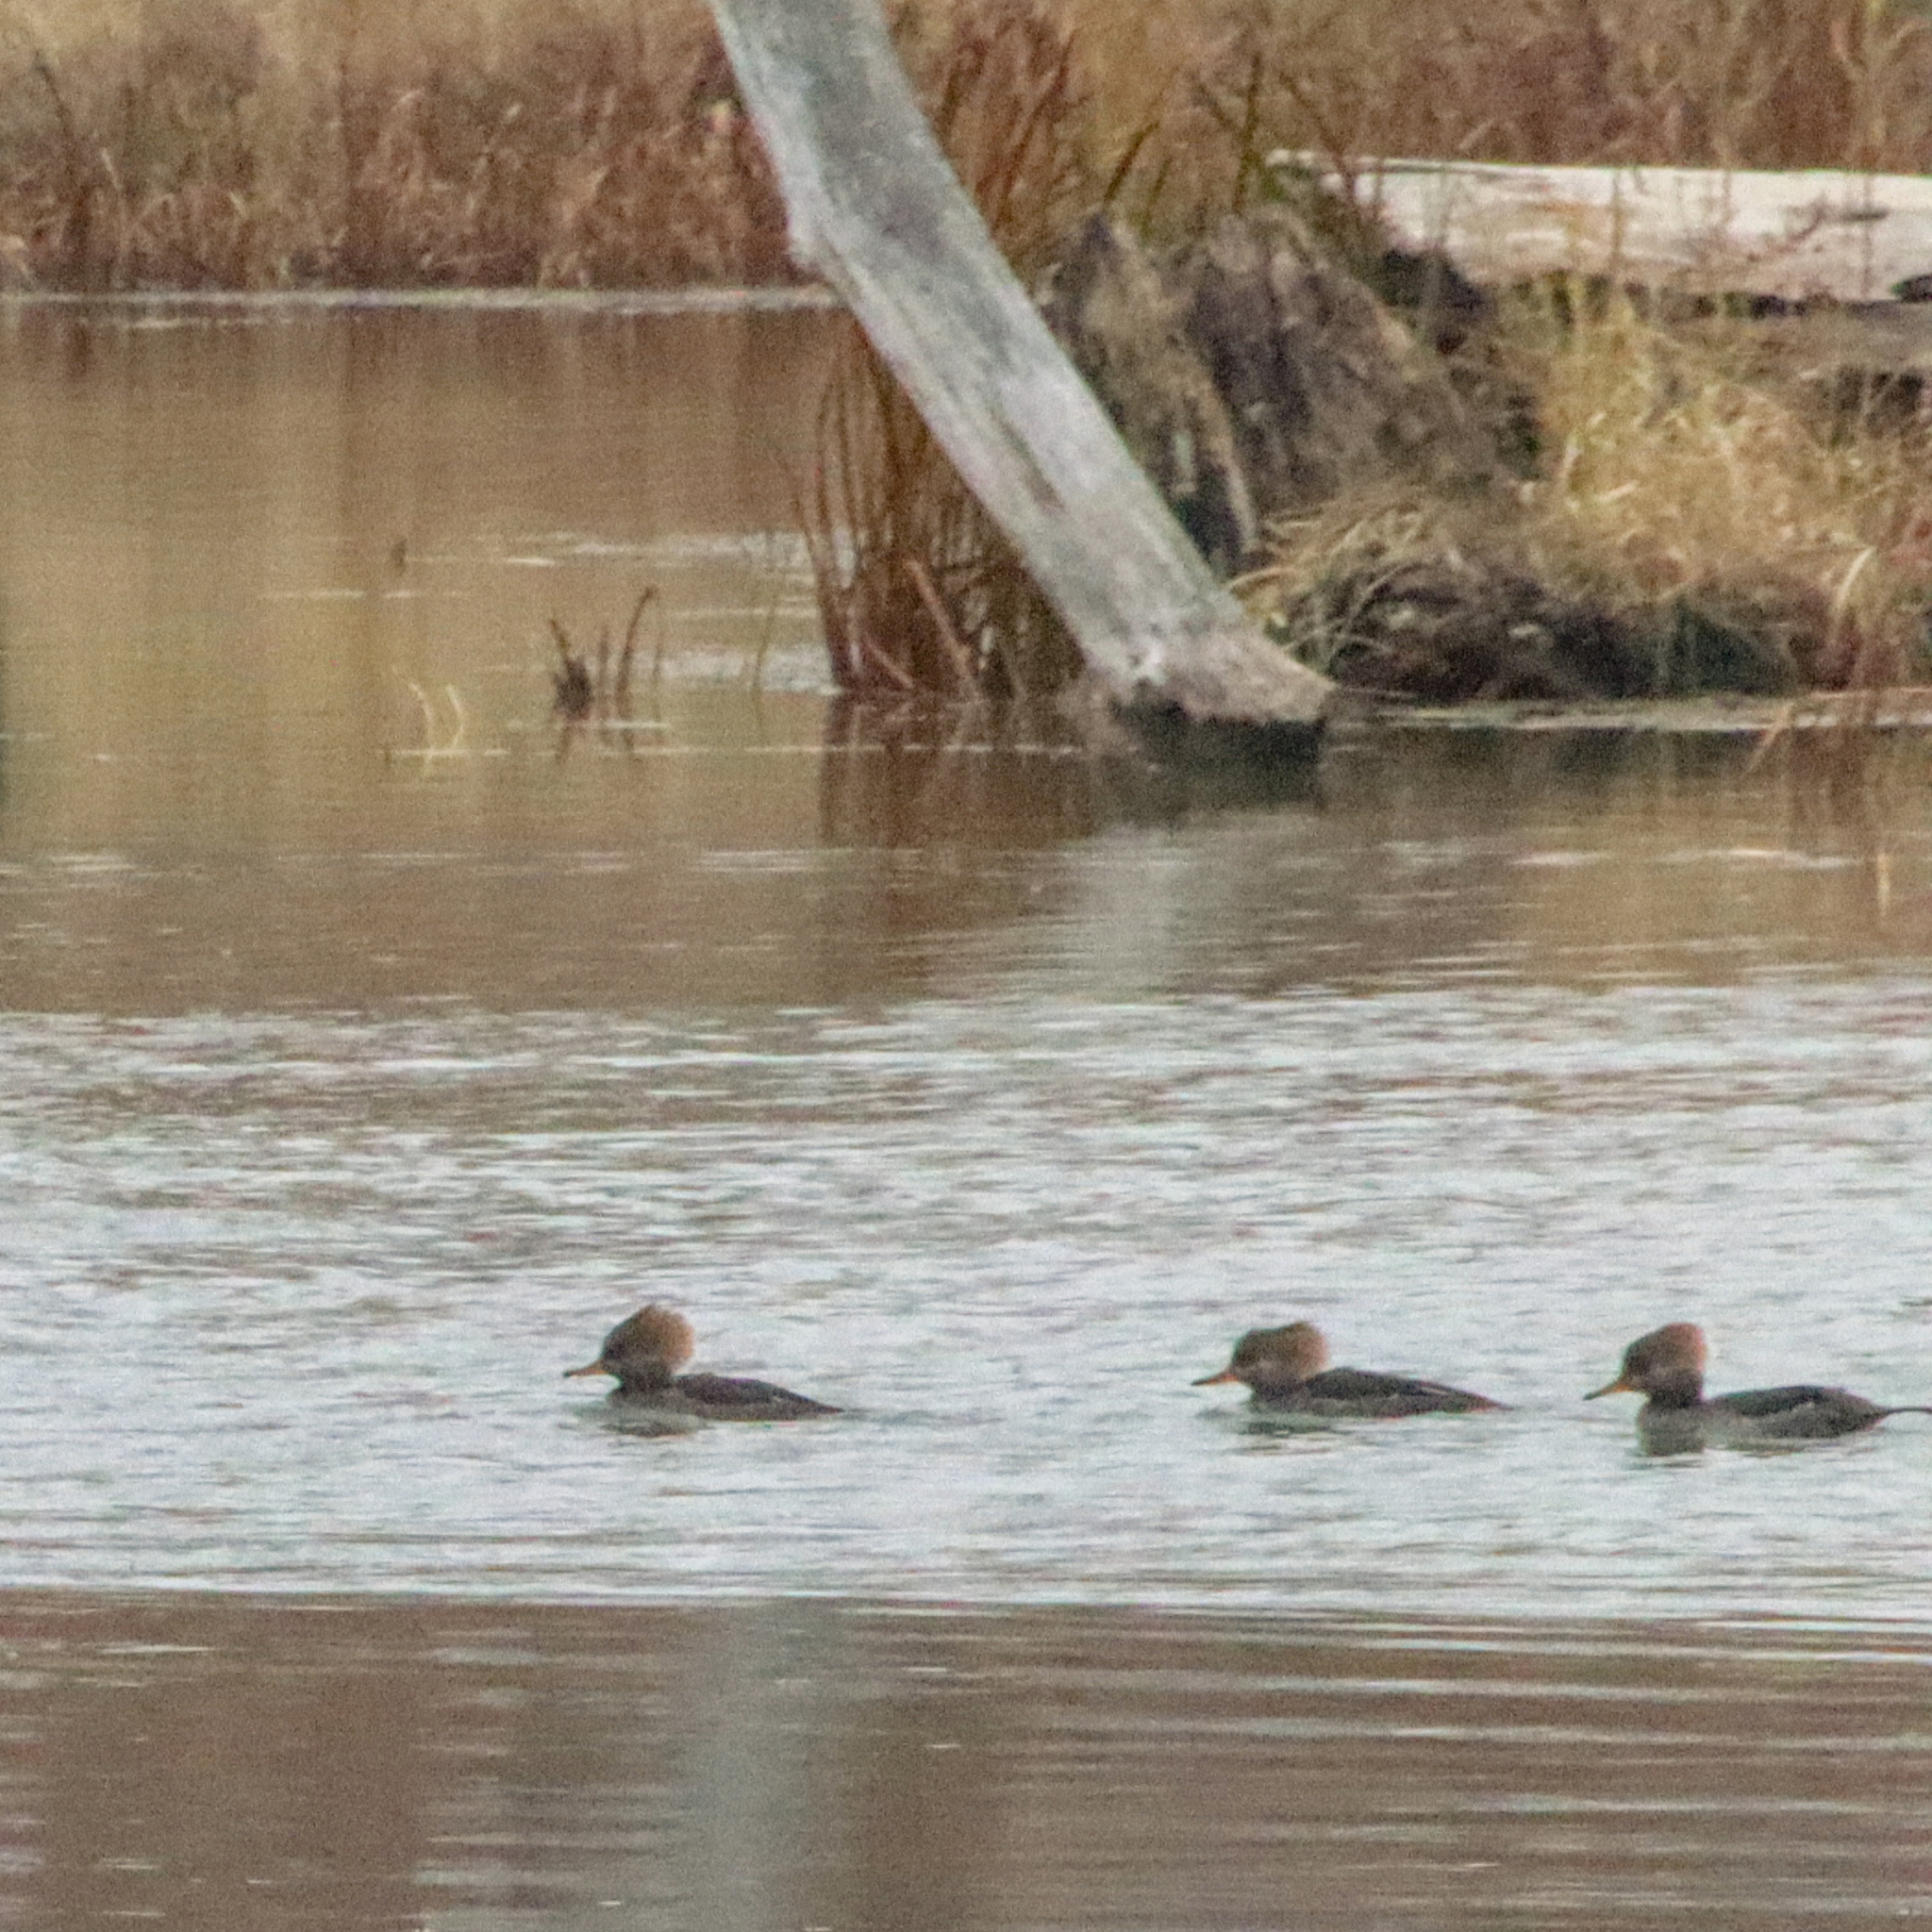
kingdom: Animalia
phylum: Chordata
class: Aves
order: Anseriformes
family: Anatidae
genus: Lophodytes
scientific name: Lophodytes cucullatus
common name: Hooded merganser
